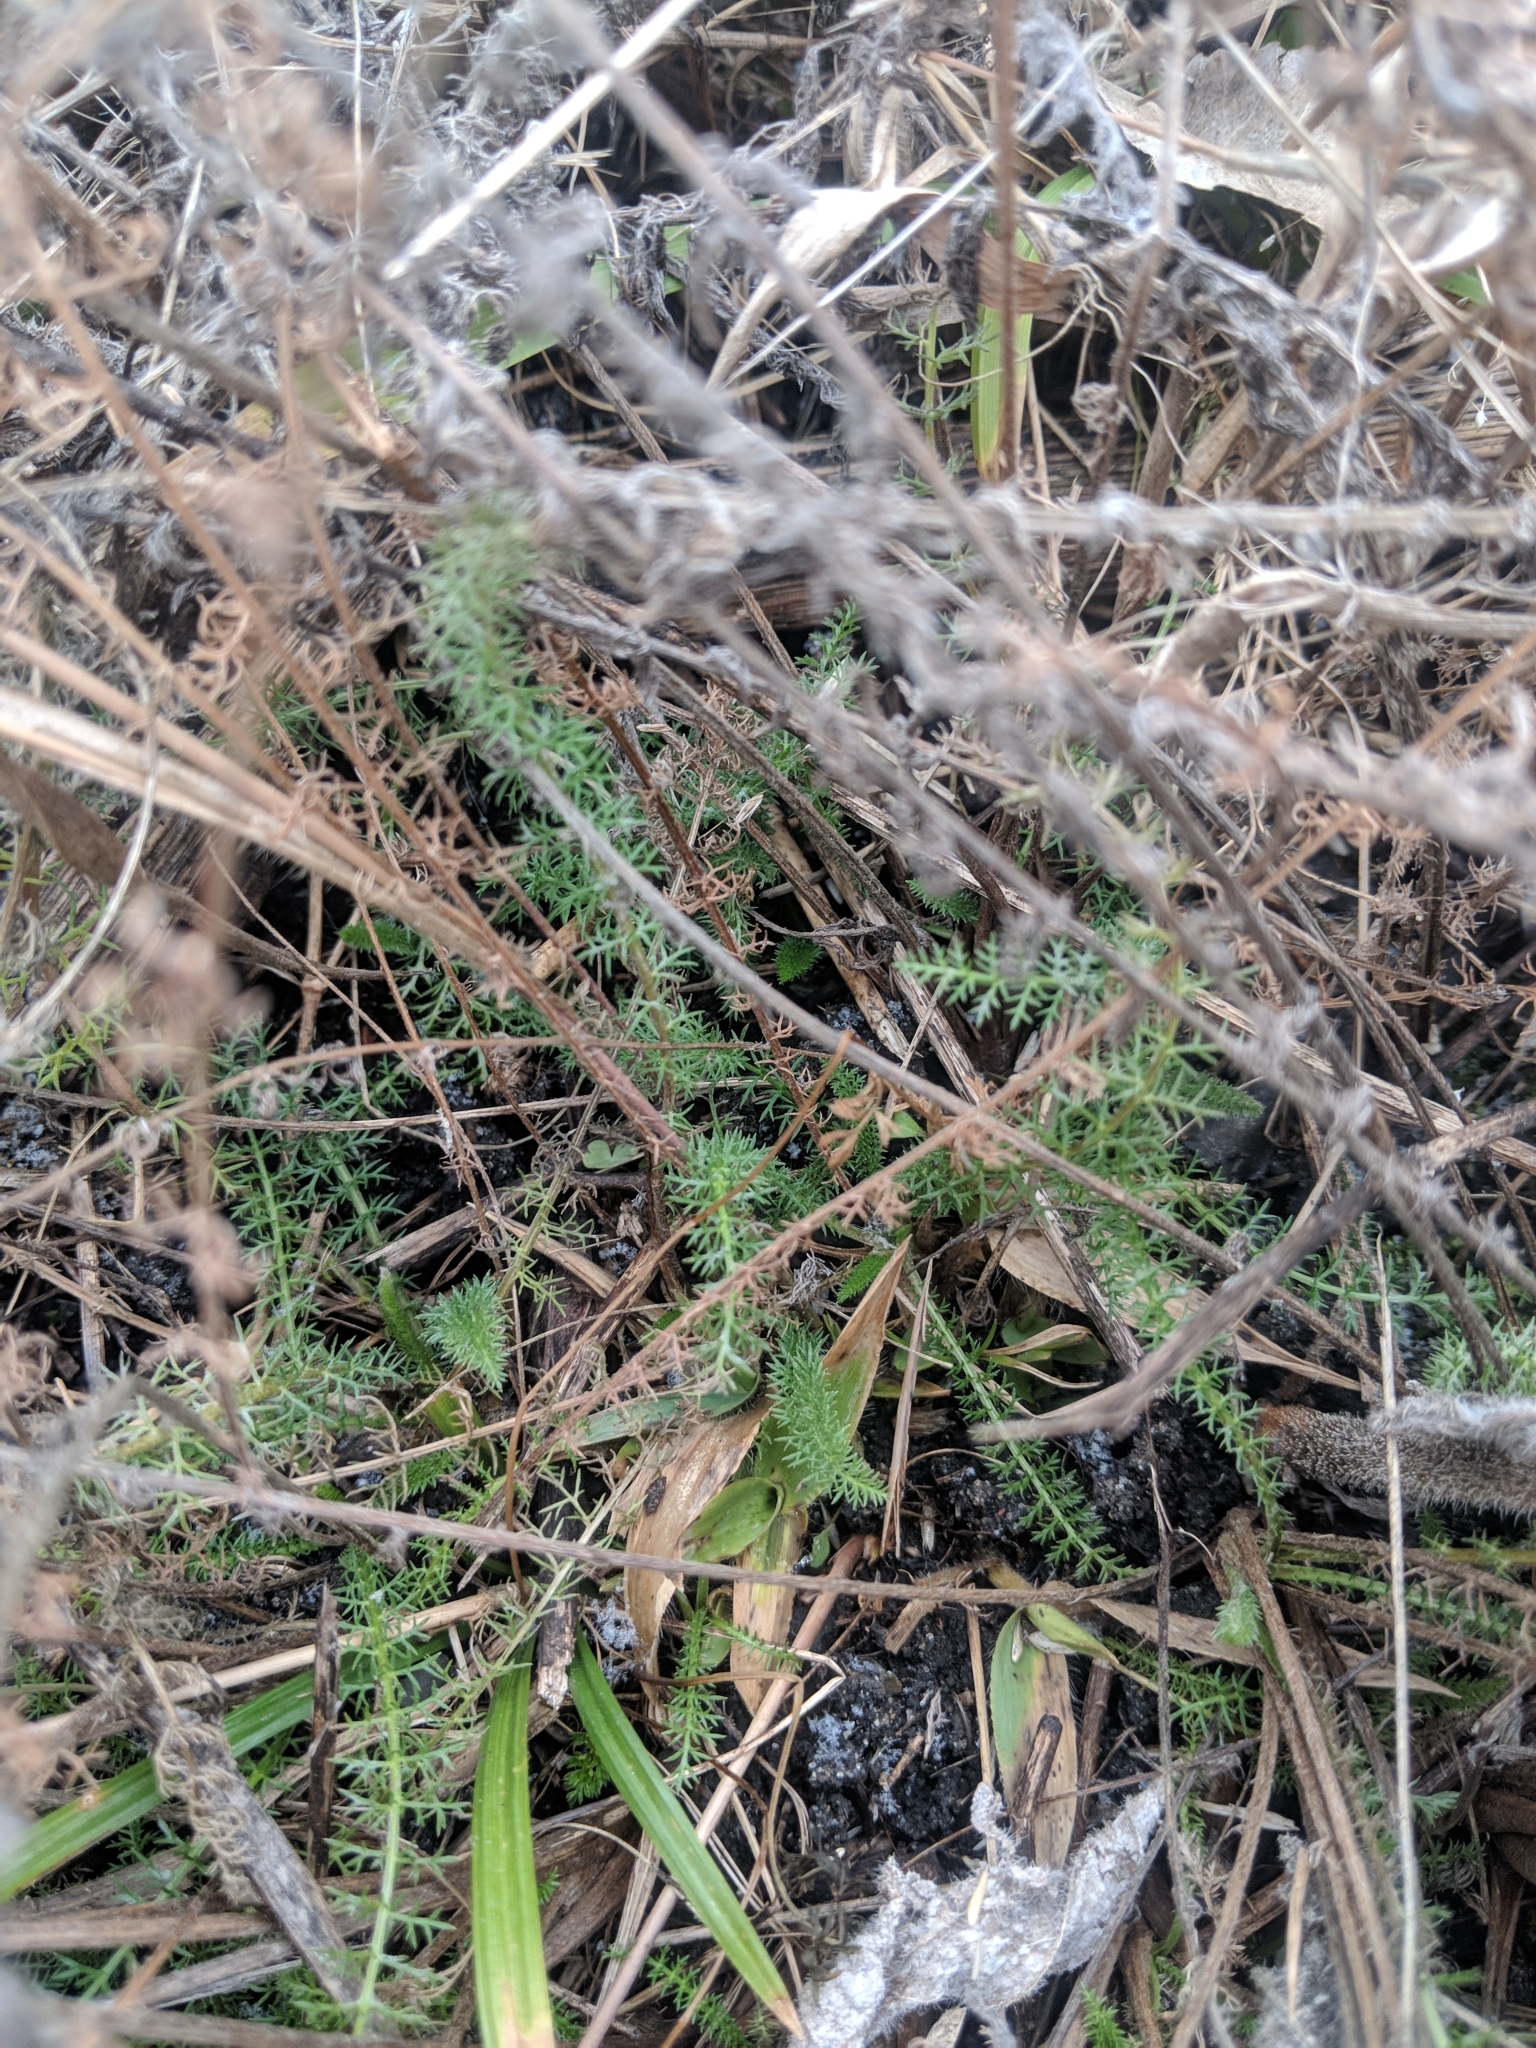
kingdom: Plantae
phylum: Tracheophyta
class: Magnoliopsida
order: Asterales
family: Asteraceae
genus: Achillea
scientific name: Achillea millefolium
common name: Yarrow
